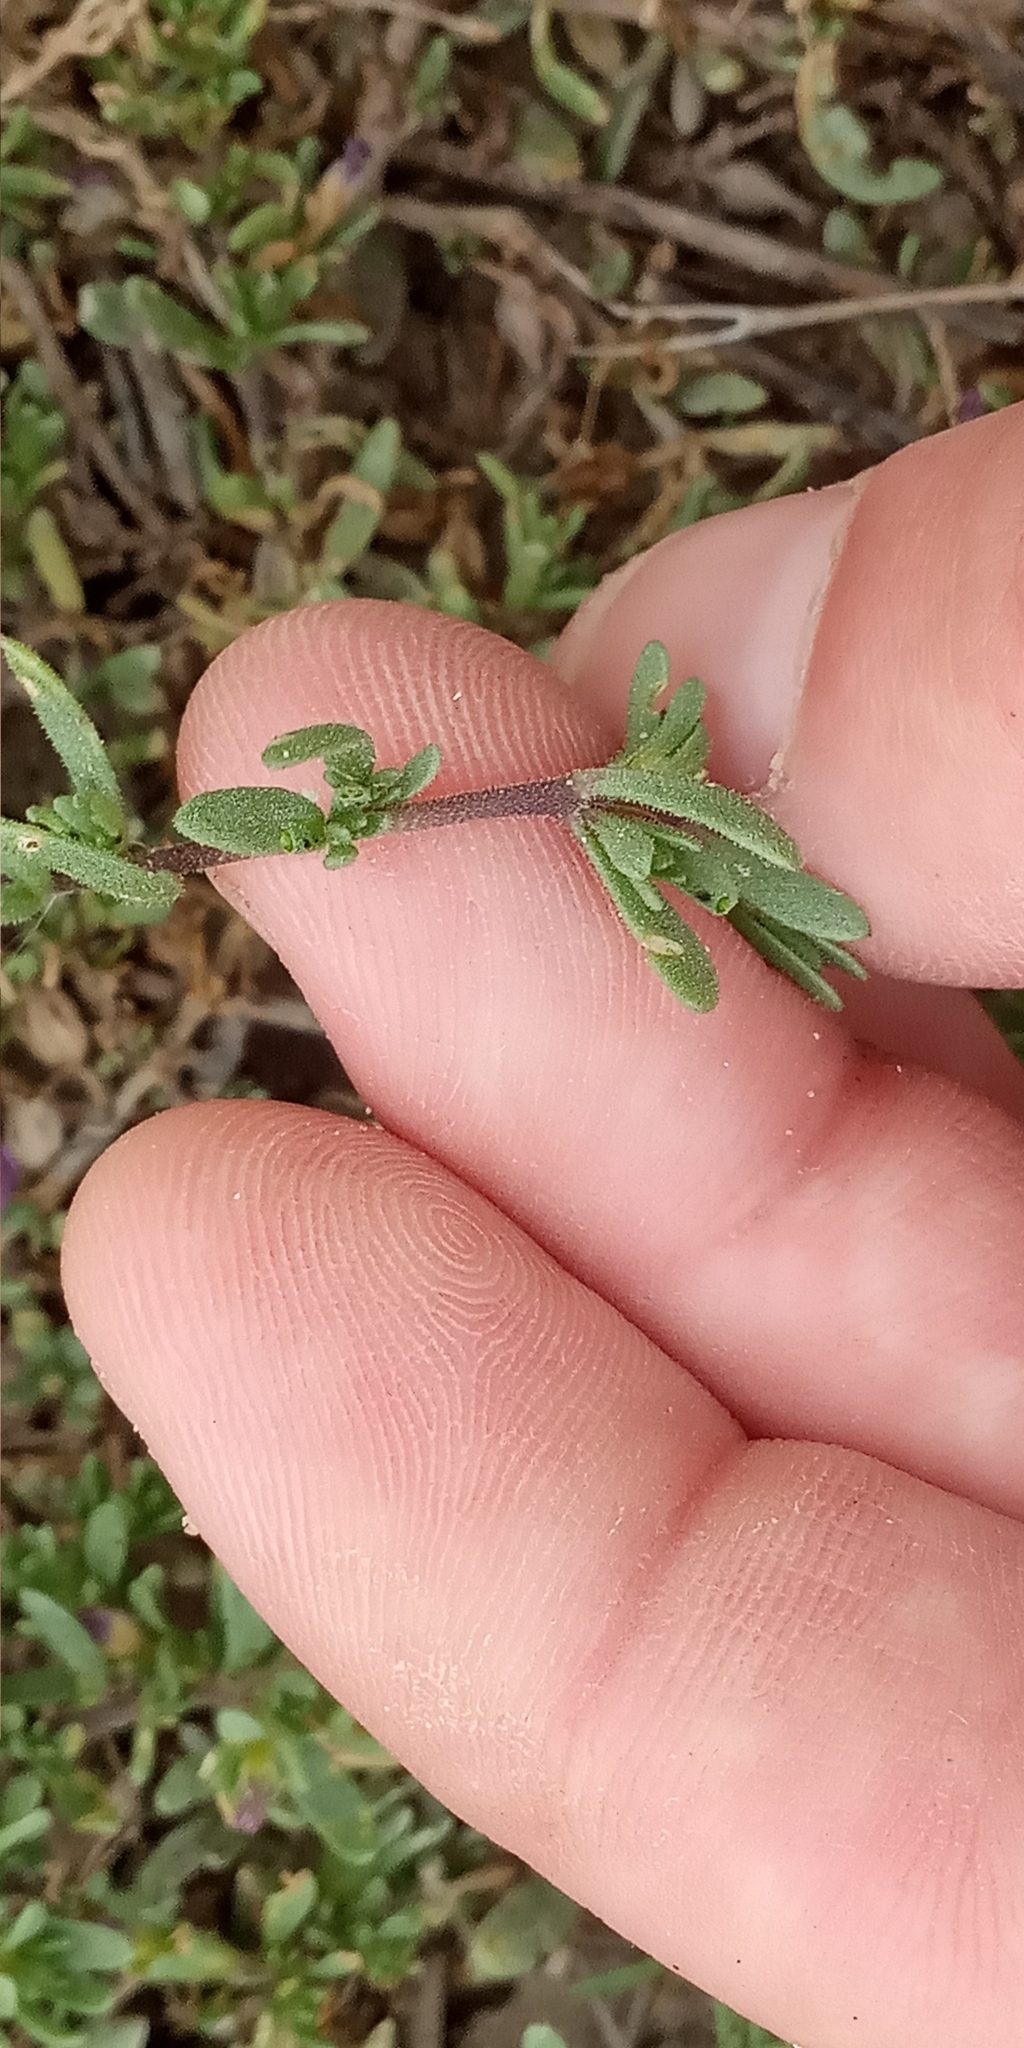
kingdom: Plantae
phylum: Tracheophyta
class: Magnoliopsida
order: Solanales
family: Solanaceae
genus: Calibrachoa
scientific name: Calibrachoa parviflora
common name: Seaside petunia
